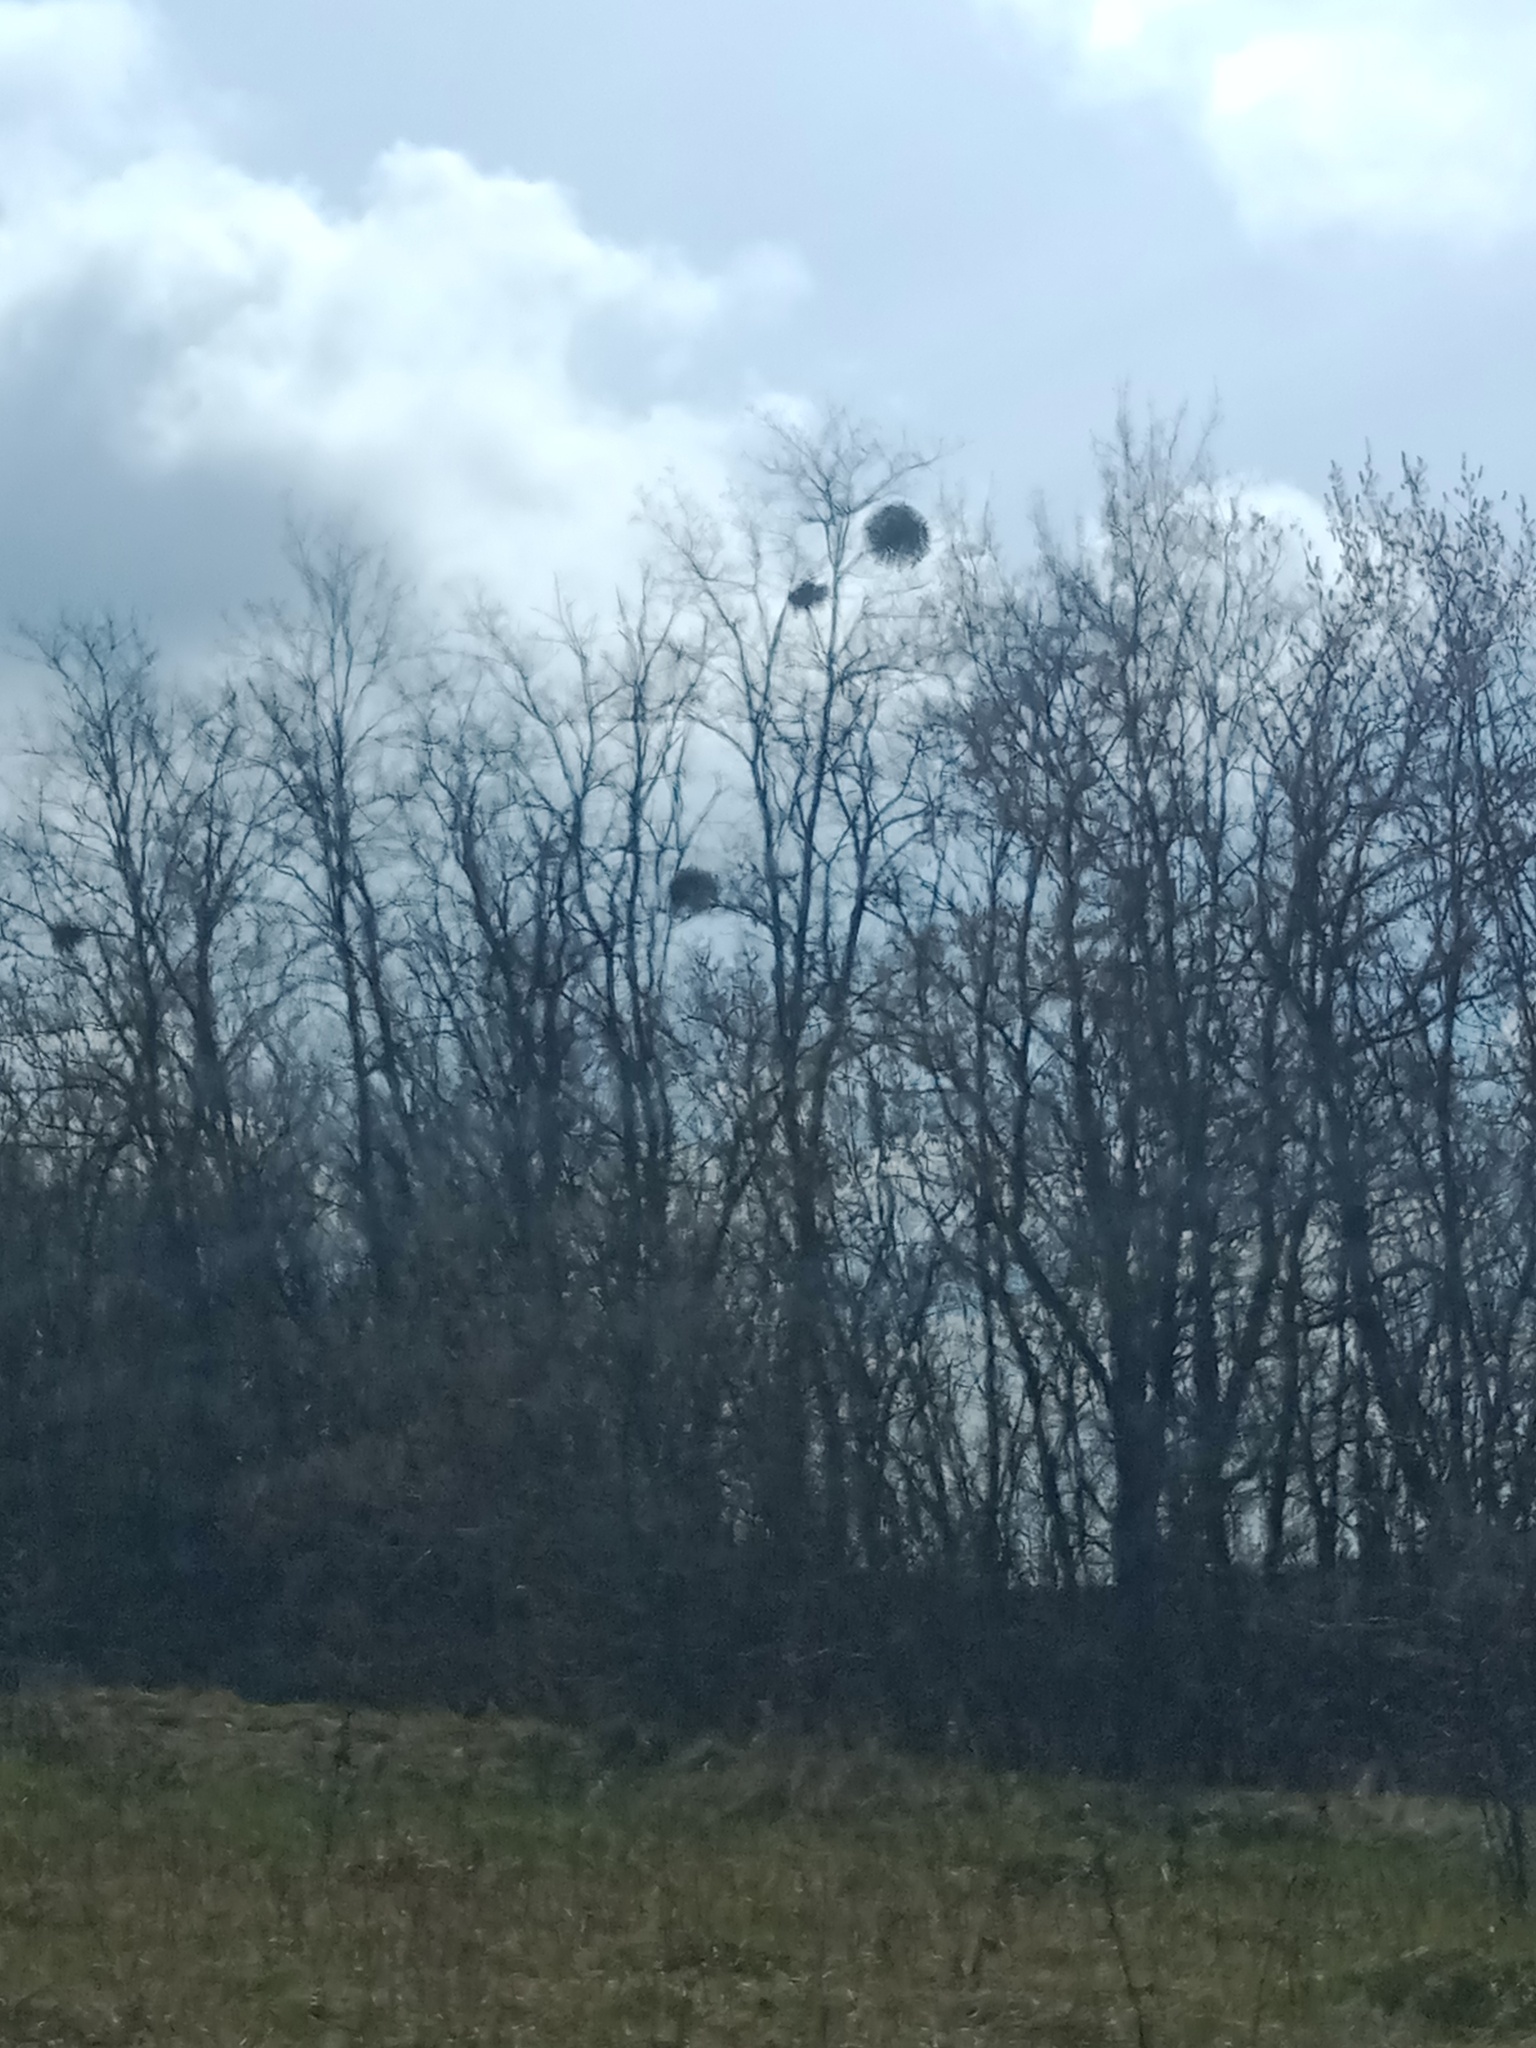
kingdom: Plantae
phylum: Tracheophyta
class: Magnoliopsida
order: Santalales
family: Viscaceae
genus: Viscum
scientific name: Viscum album
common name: Mistletoe
